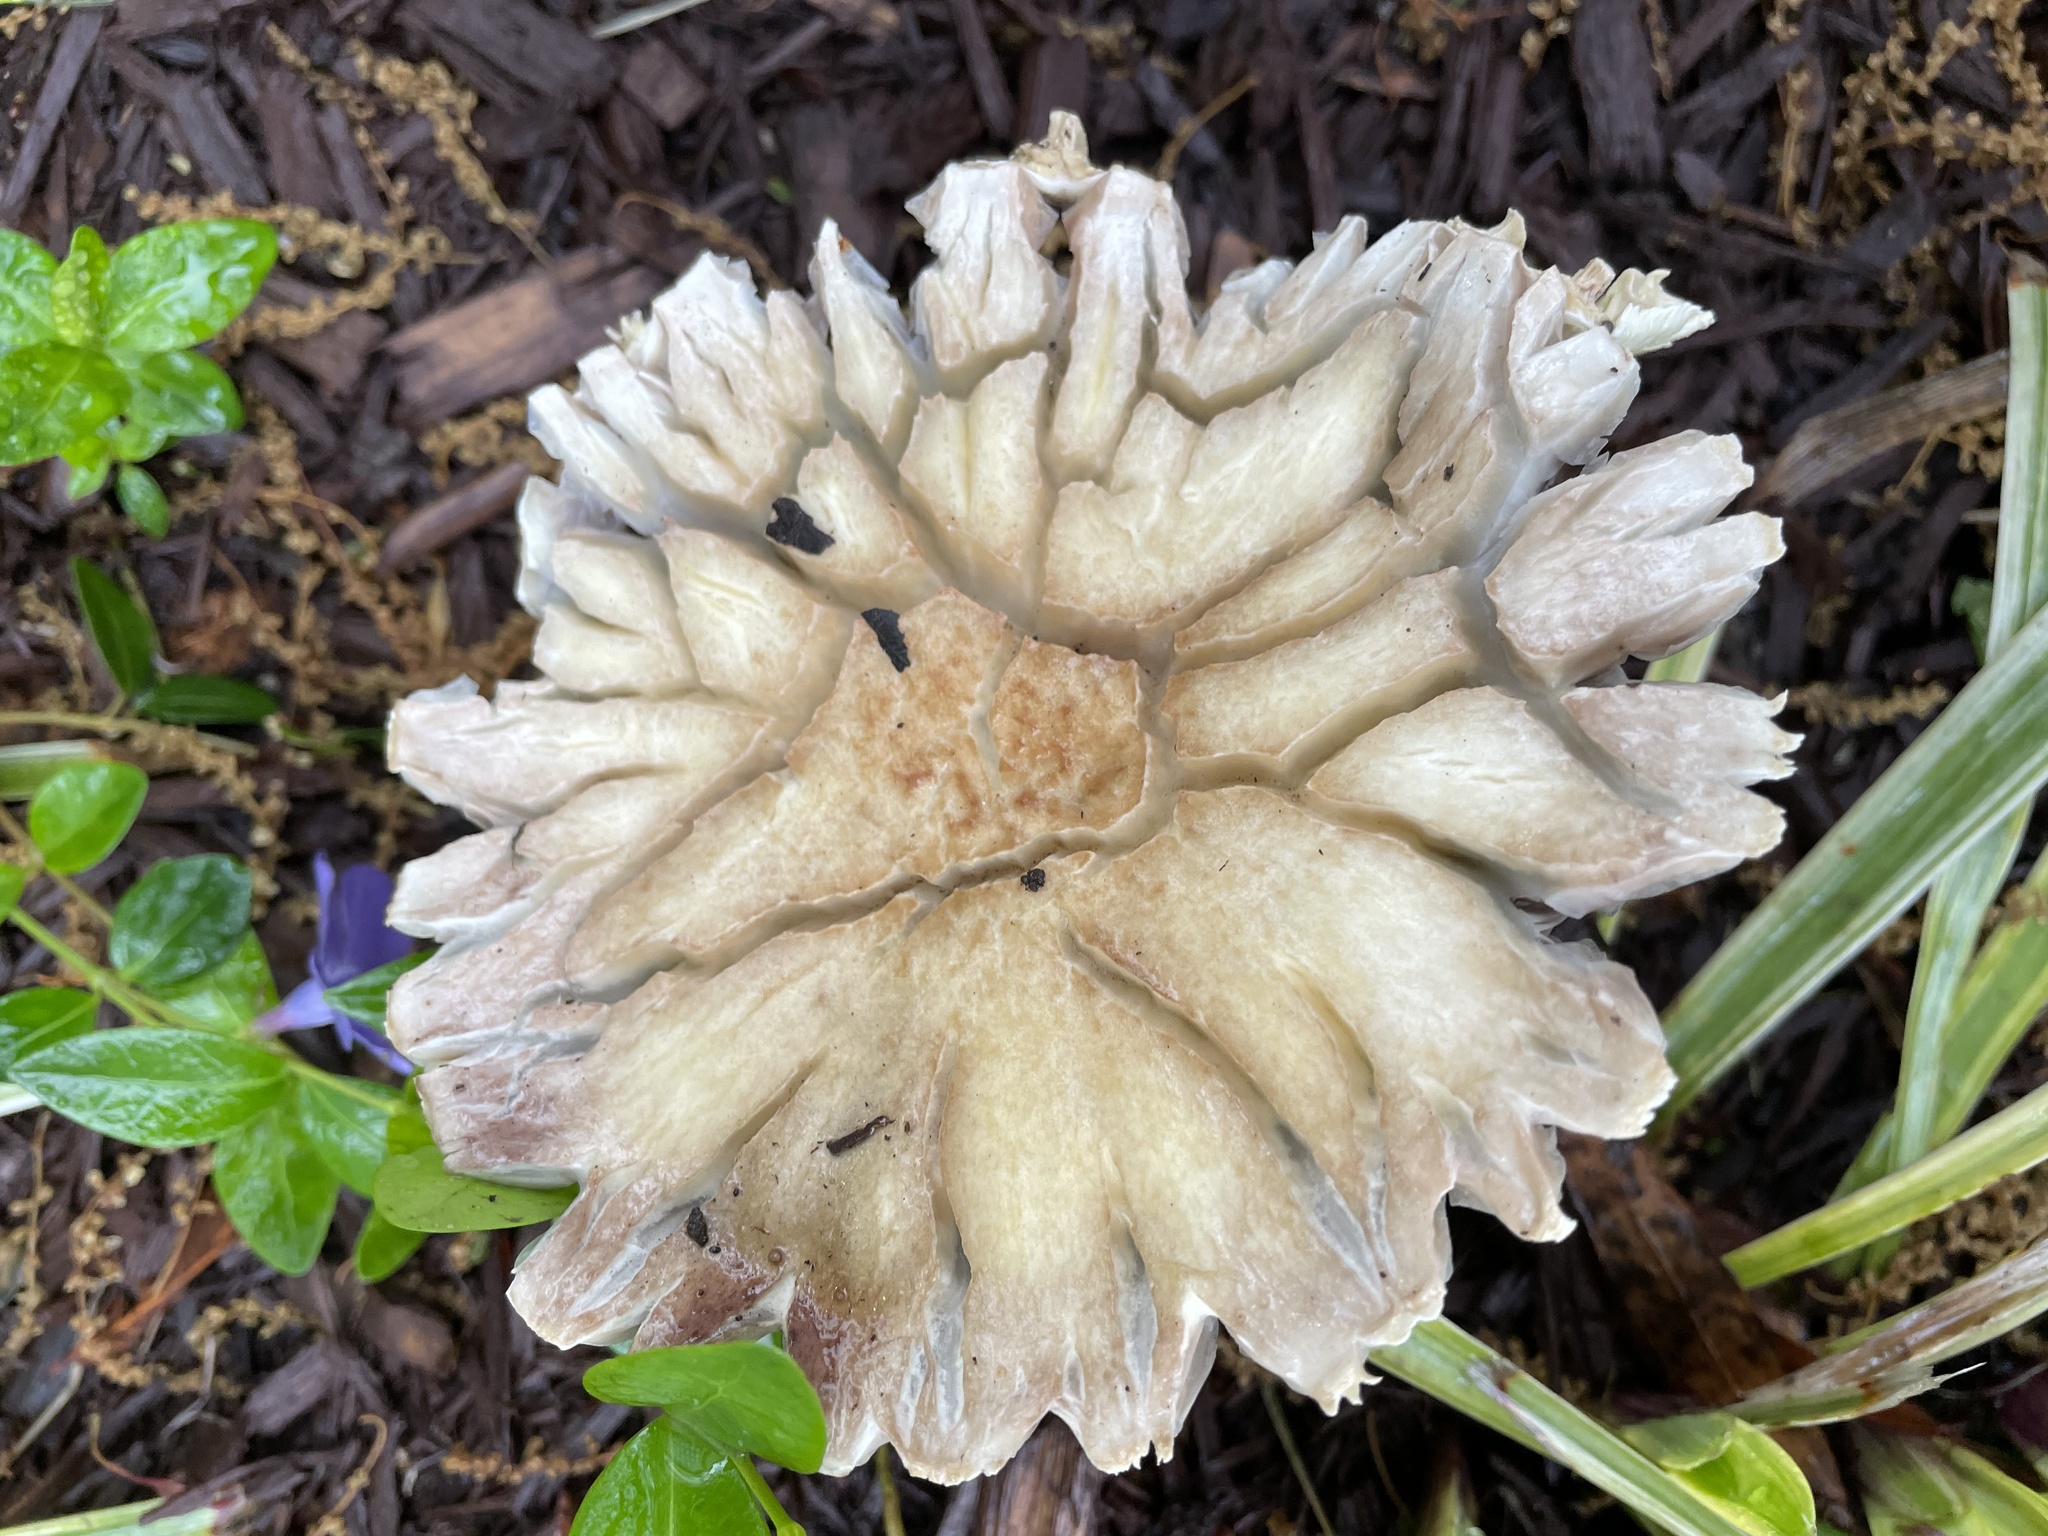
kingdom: Fungi
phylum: Basidiomycota
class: Agaricomycetes
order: Agaricales
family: Strophariaceae
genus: Stropharia
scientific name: Stropharia rugosoannulata
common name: Wine roundhead
